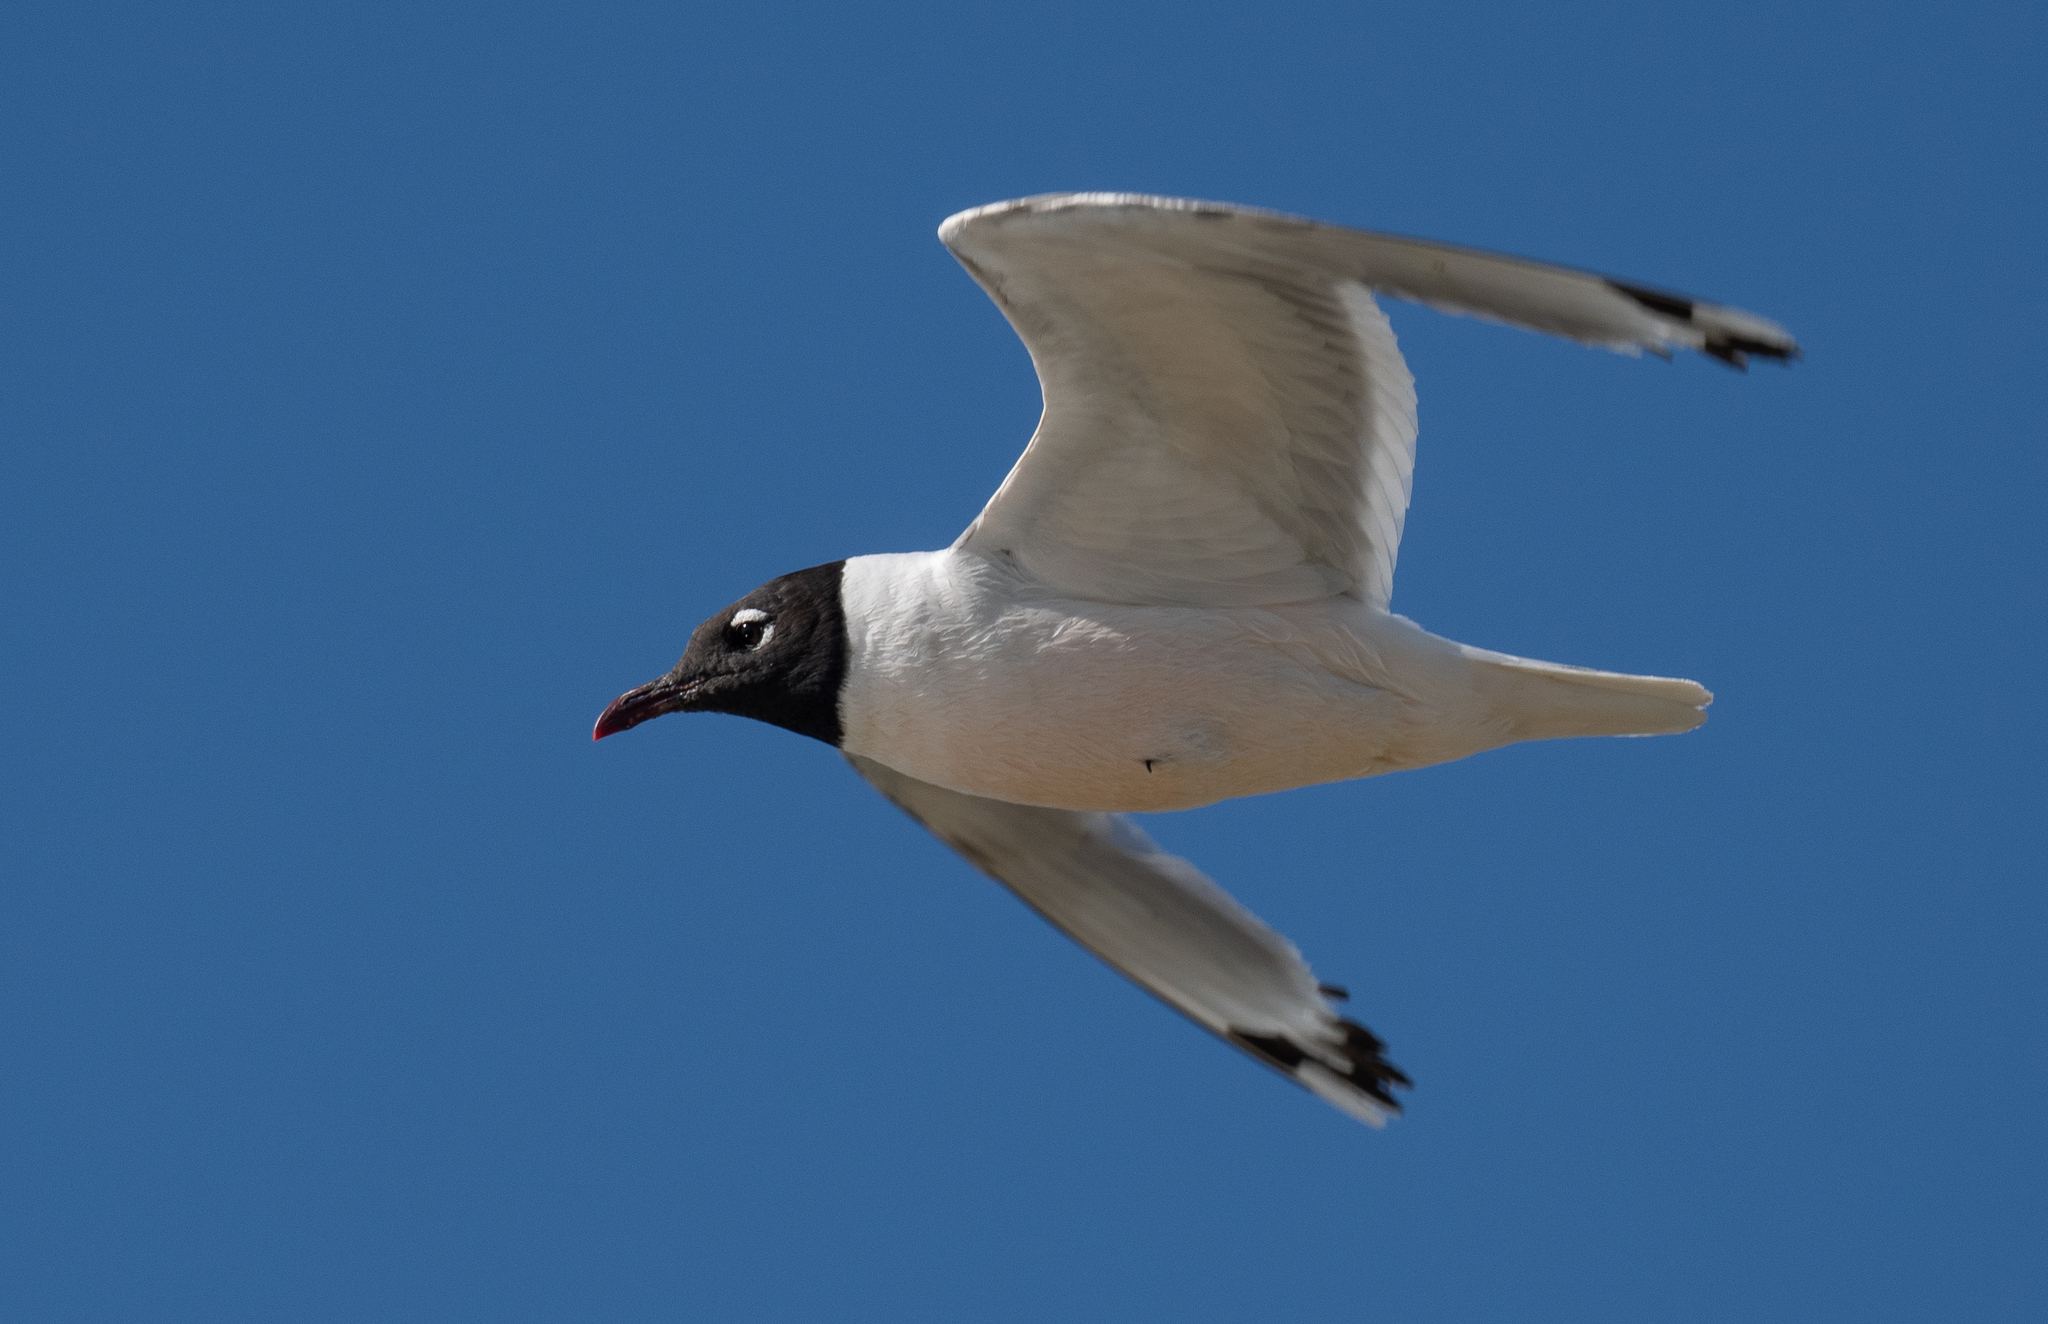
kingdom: Animalia
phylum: Chordata
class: Aves
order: Charadriiformes
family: Laridae
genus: Leucophaeus
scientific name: Leucophaeus pipixcan
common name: Franklin's gull
